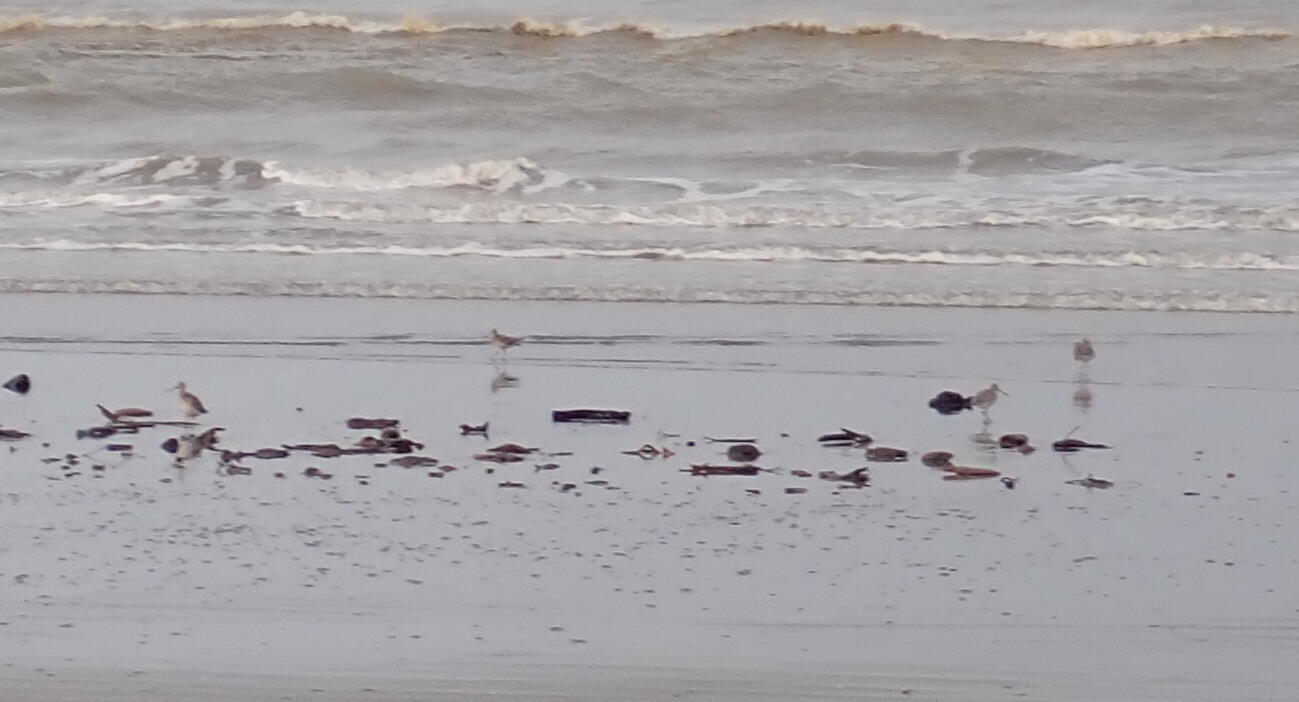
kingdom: Animalia
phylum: Chordata
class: Aves
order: Charadriiformes
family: Scolopacidae
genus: Limosa
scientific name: Limosa lapponica
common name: Bar-tailed godwit
